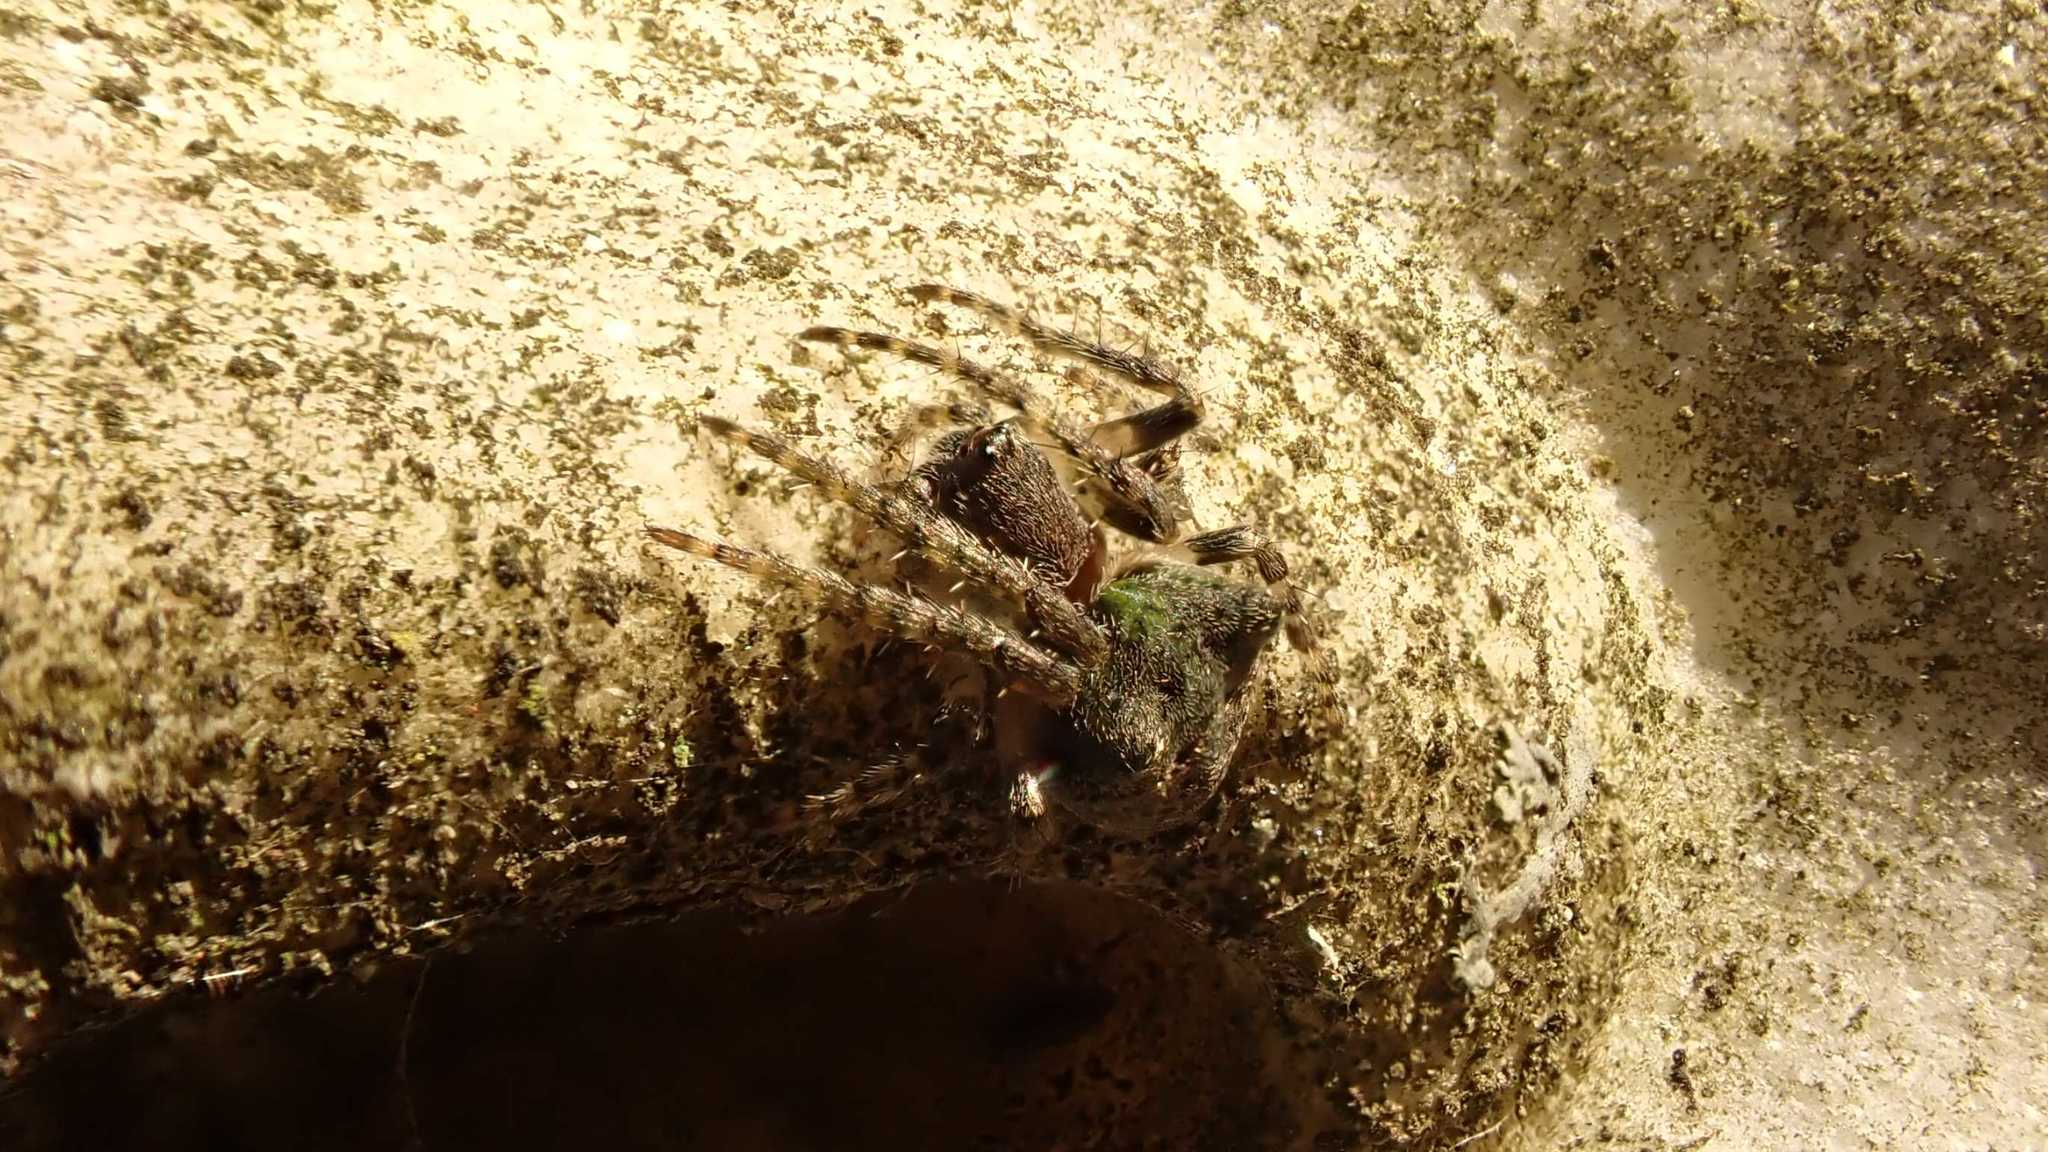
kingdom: Animalia
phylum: Arthropoda
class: Arachnida
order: Araneae
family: Araneidae
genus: Gibbaranea
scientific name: Gibbaranea gibbosa
